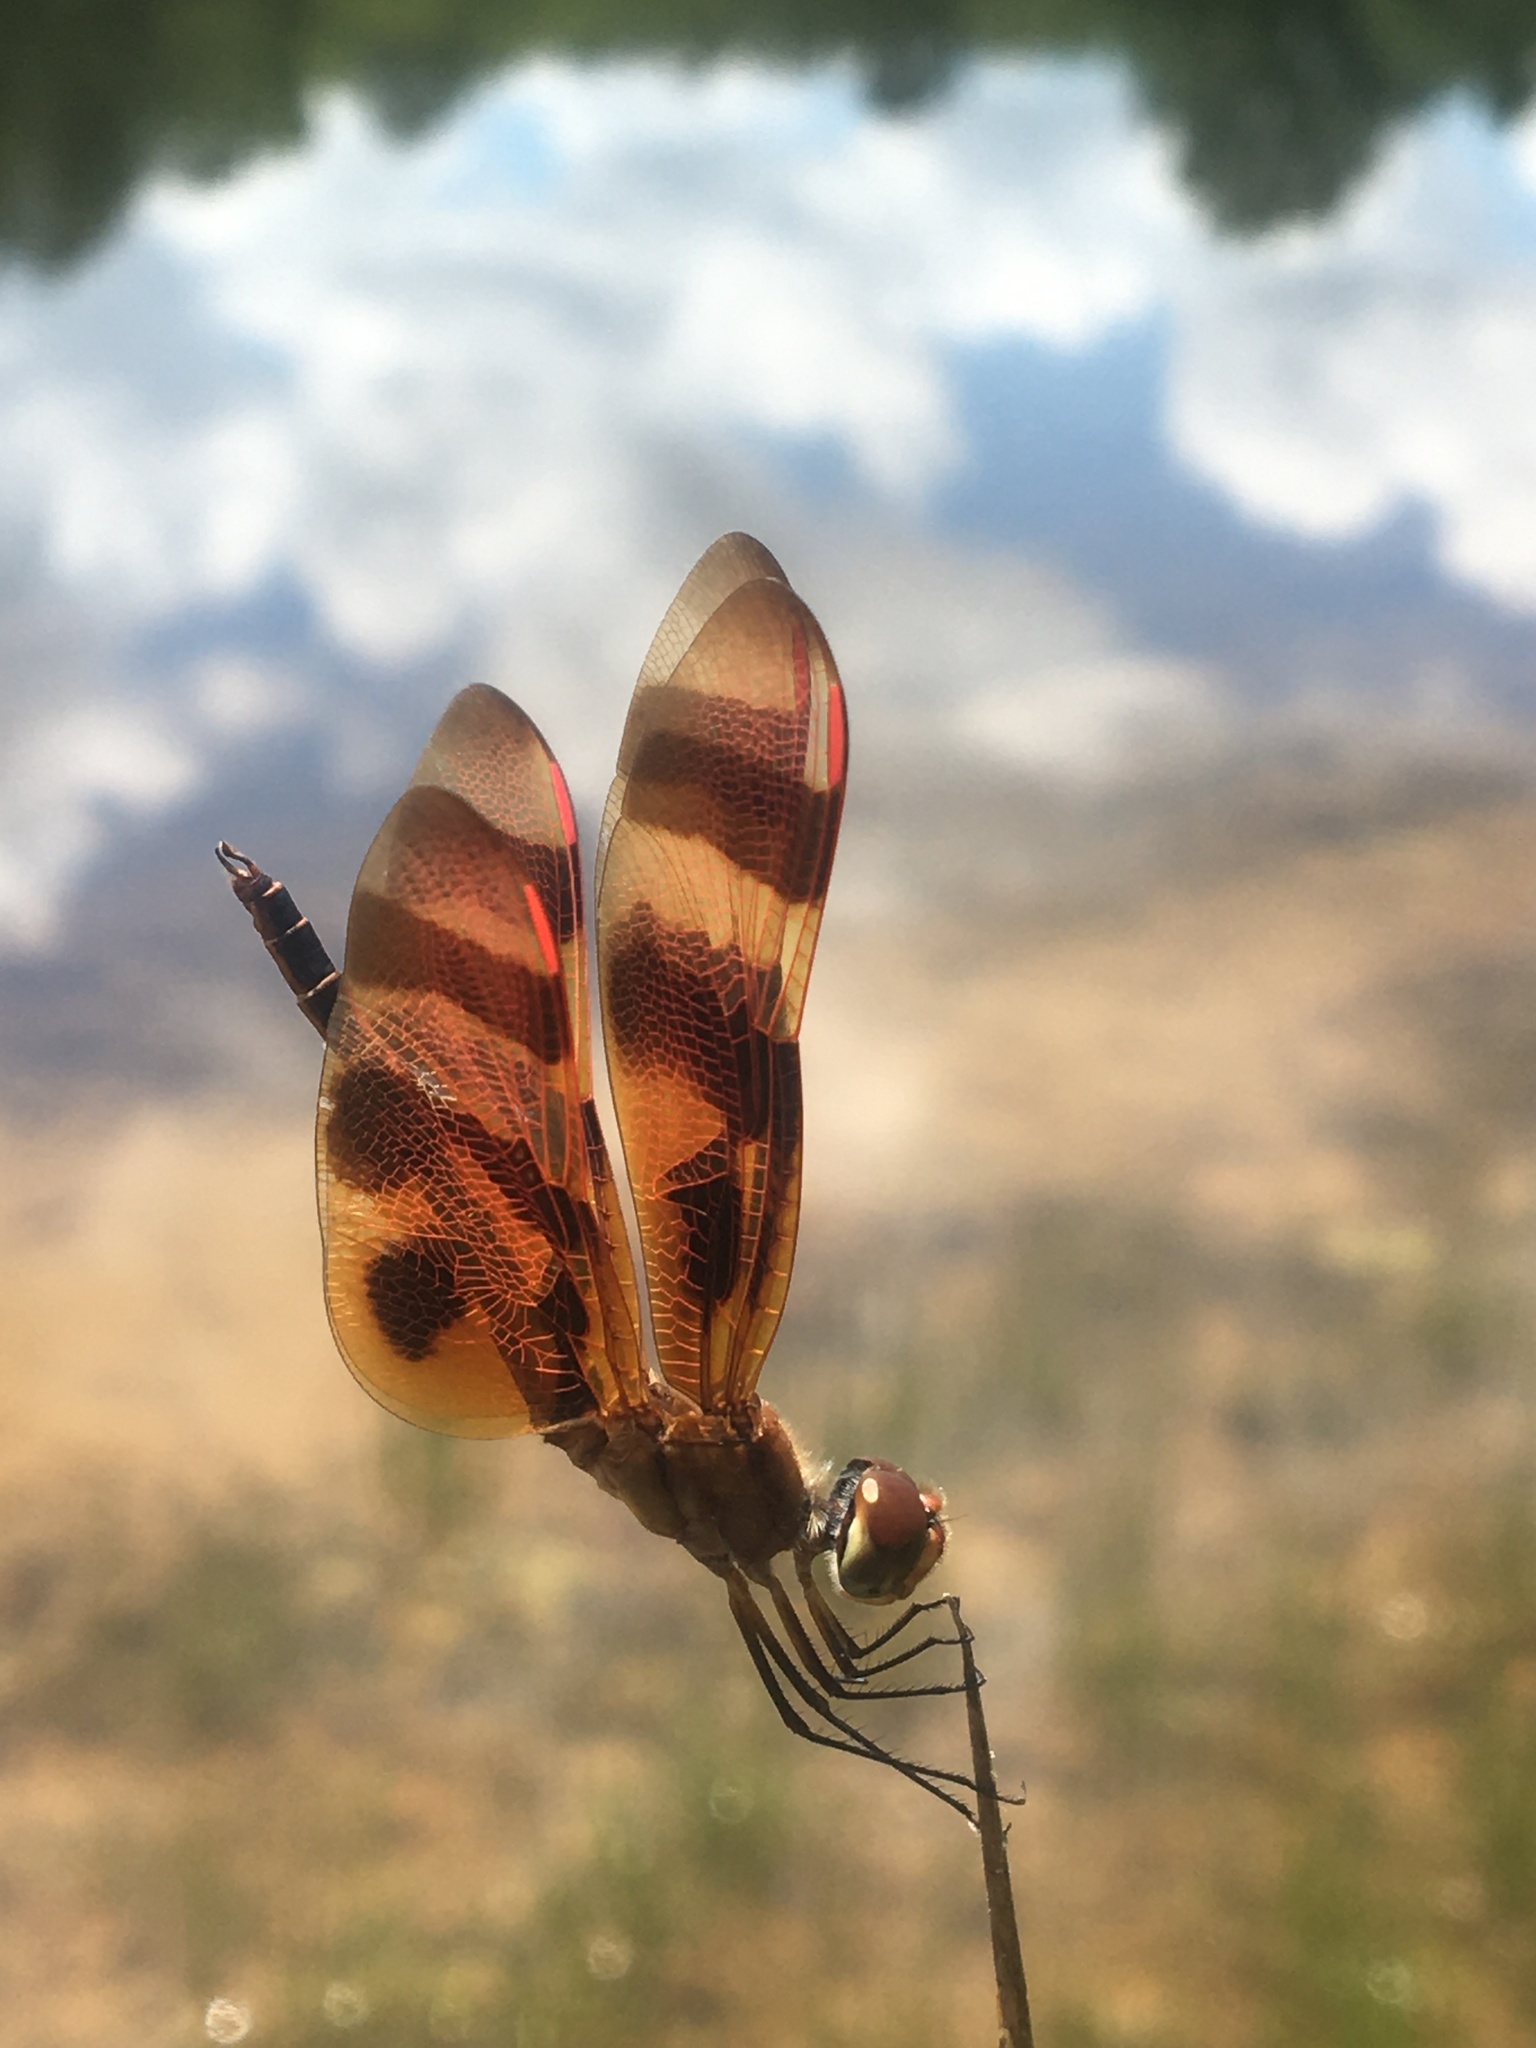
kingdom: Animalia
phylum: Arthropoda
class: Insecta
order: Odonata
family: Libellulidae
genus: Celithemis
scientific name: Celithemis eponina
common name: Halloween pennant
